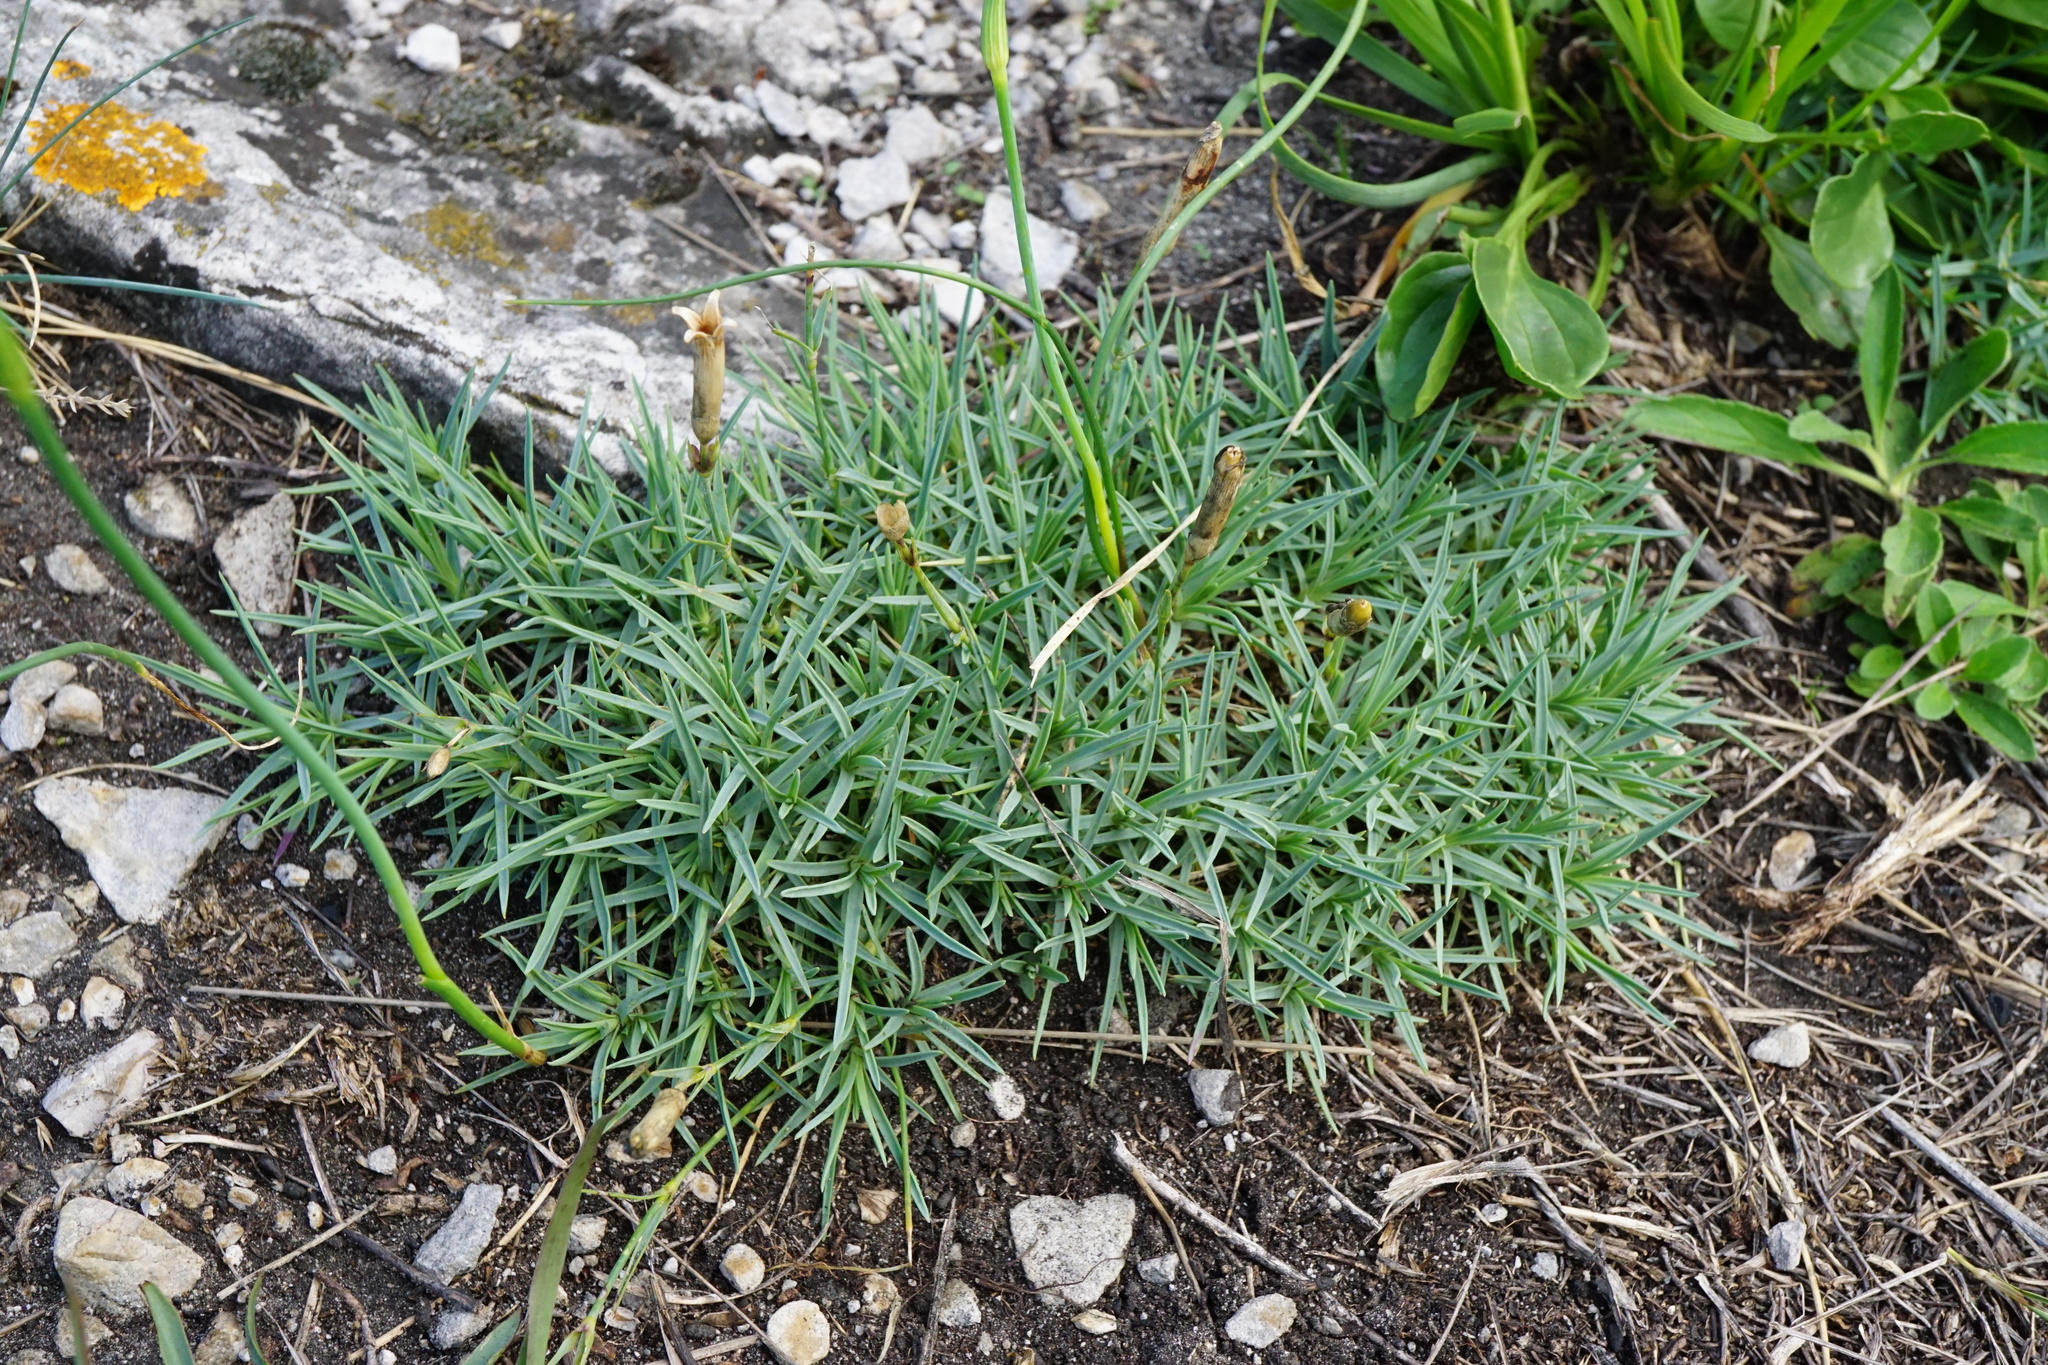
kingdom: Plantae
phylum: Tracheophyta
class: Magnoliopsida
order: Caryophyllales
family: Caryophyllaceae
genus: Dianthus
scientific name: Dianthus praecox
